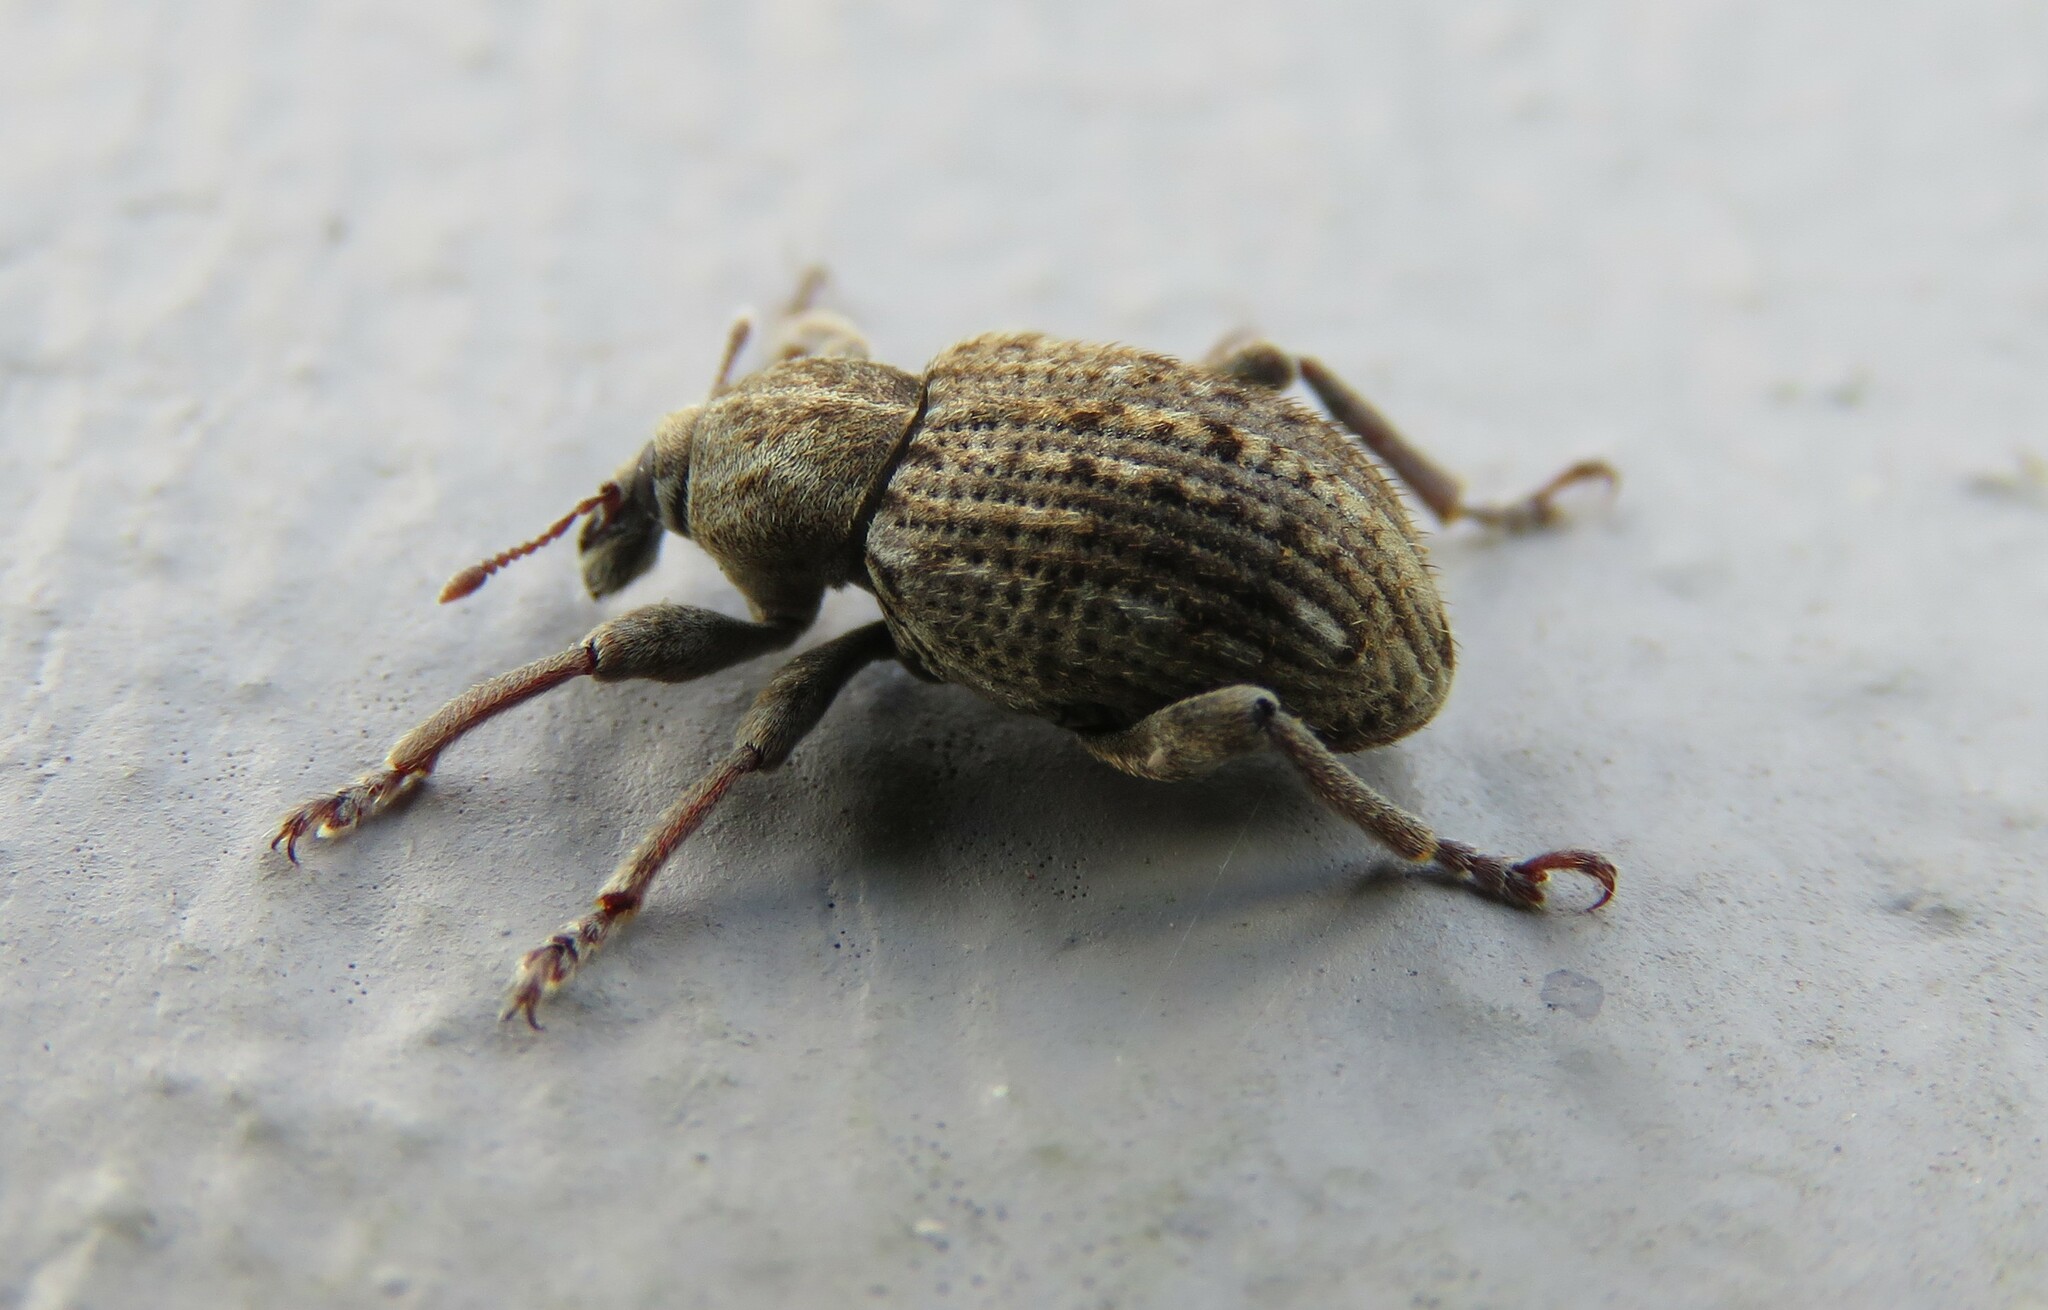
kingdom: Animalia
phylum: Arthropoda
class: Insecta
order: Coleoptera
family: Curculionidae
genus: Brachypera
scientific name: Brachypera zoilus
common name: Clover leaf weevil
